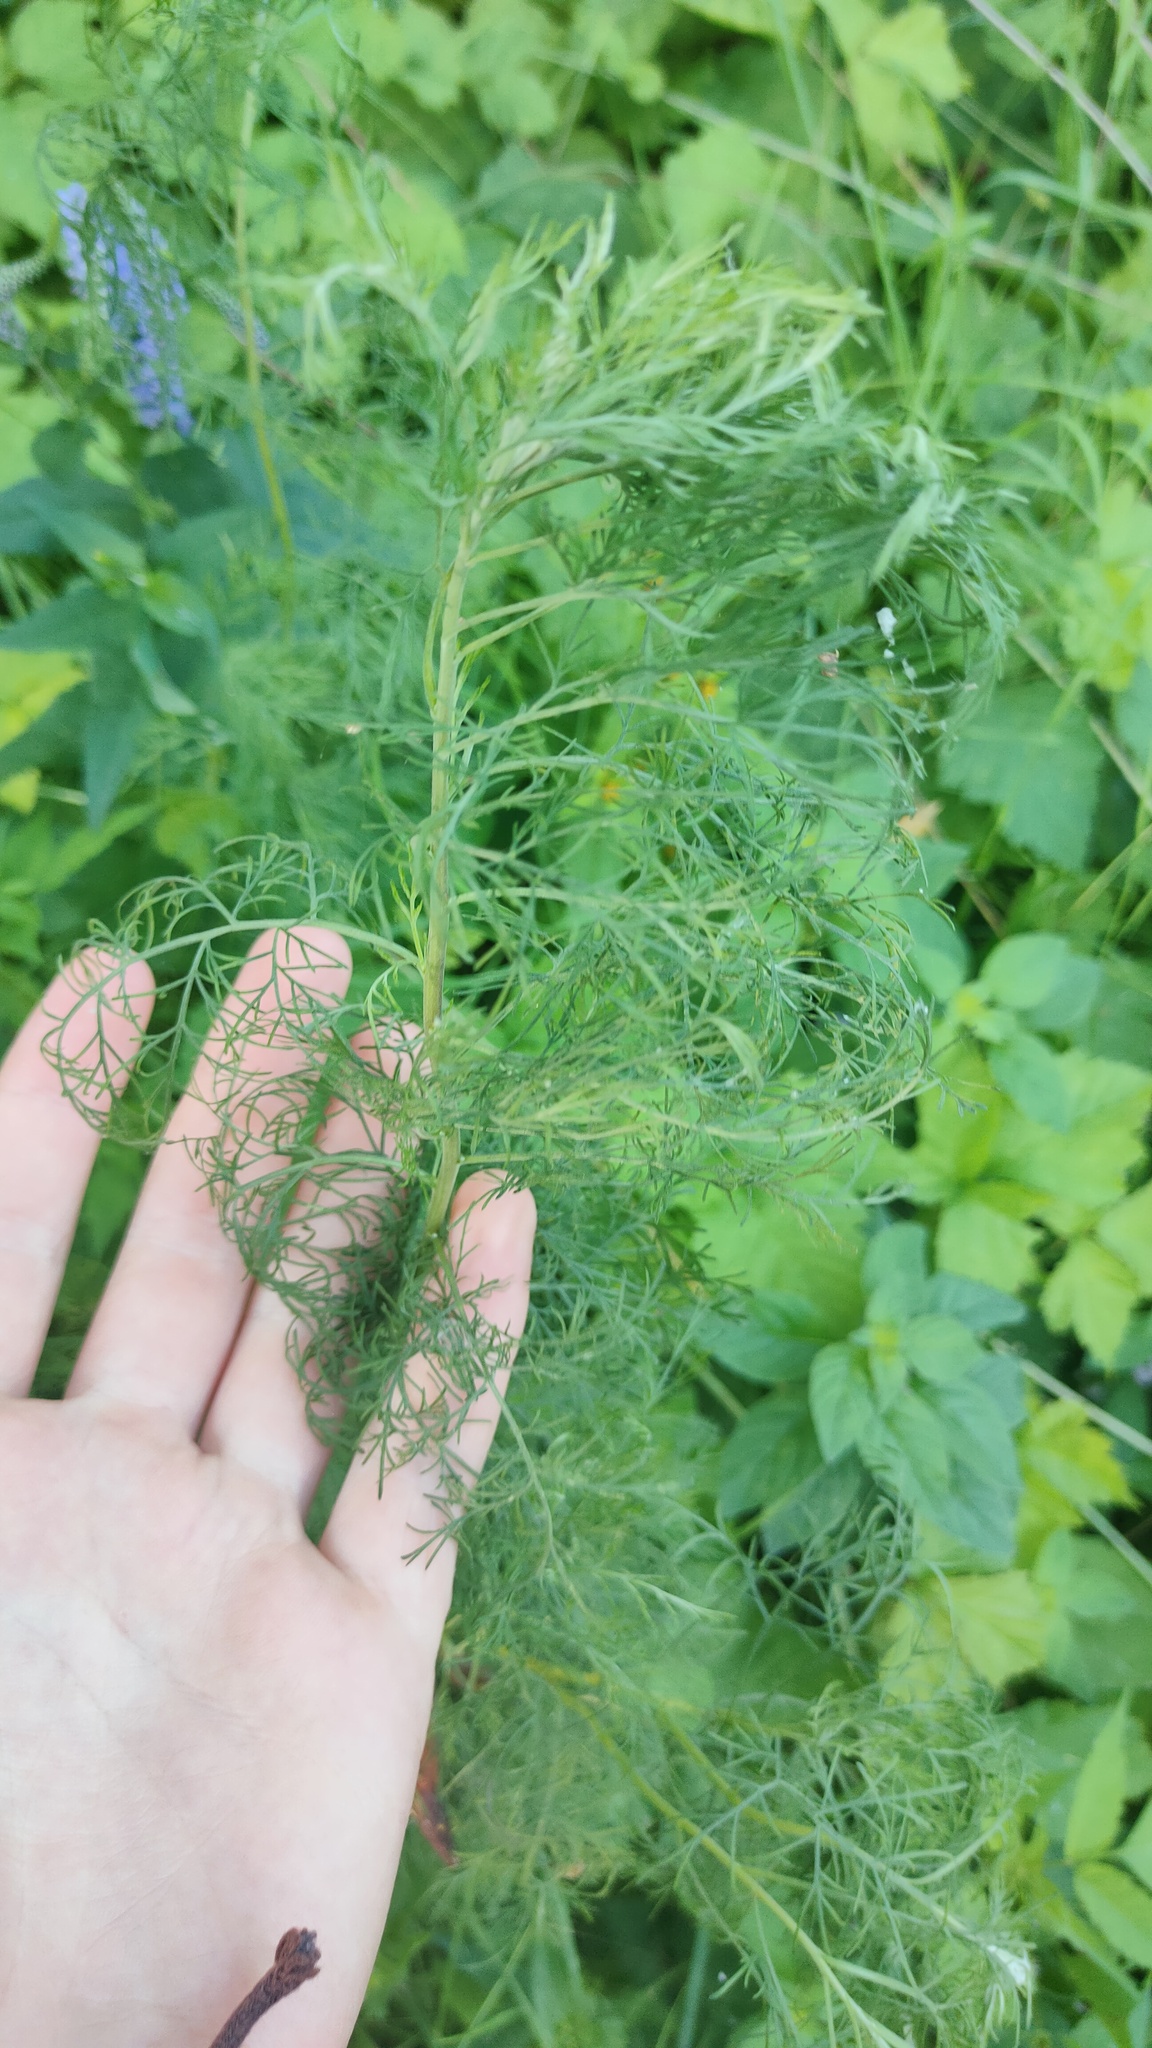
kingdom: Plantae
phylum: Tracheophyta
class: Magnoliopsida
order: Asterales
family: Asteraceae
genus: Artemisia
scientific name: Artemisia abrotanum
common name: Southernwood
